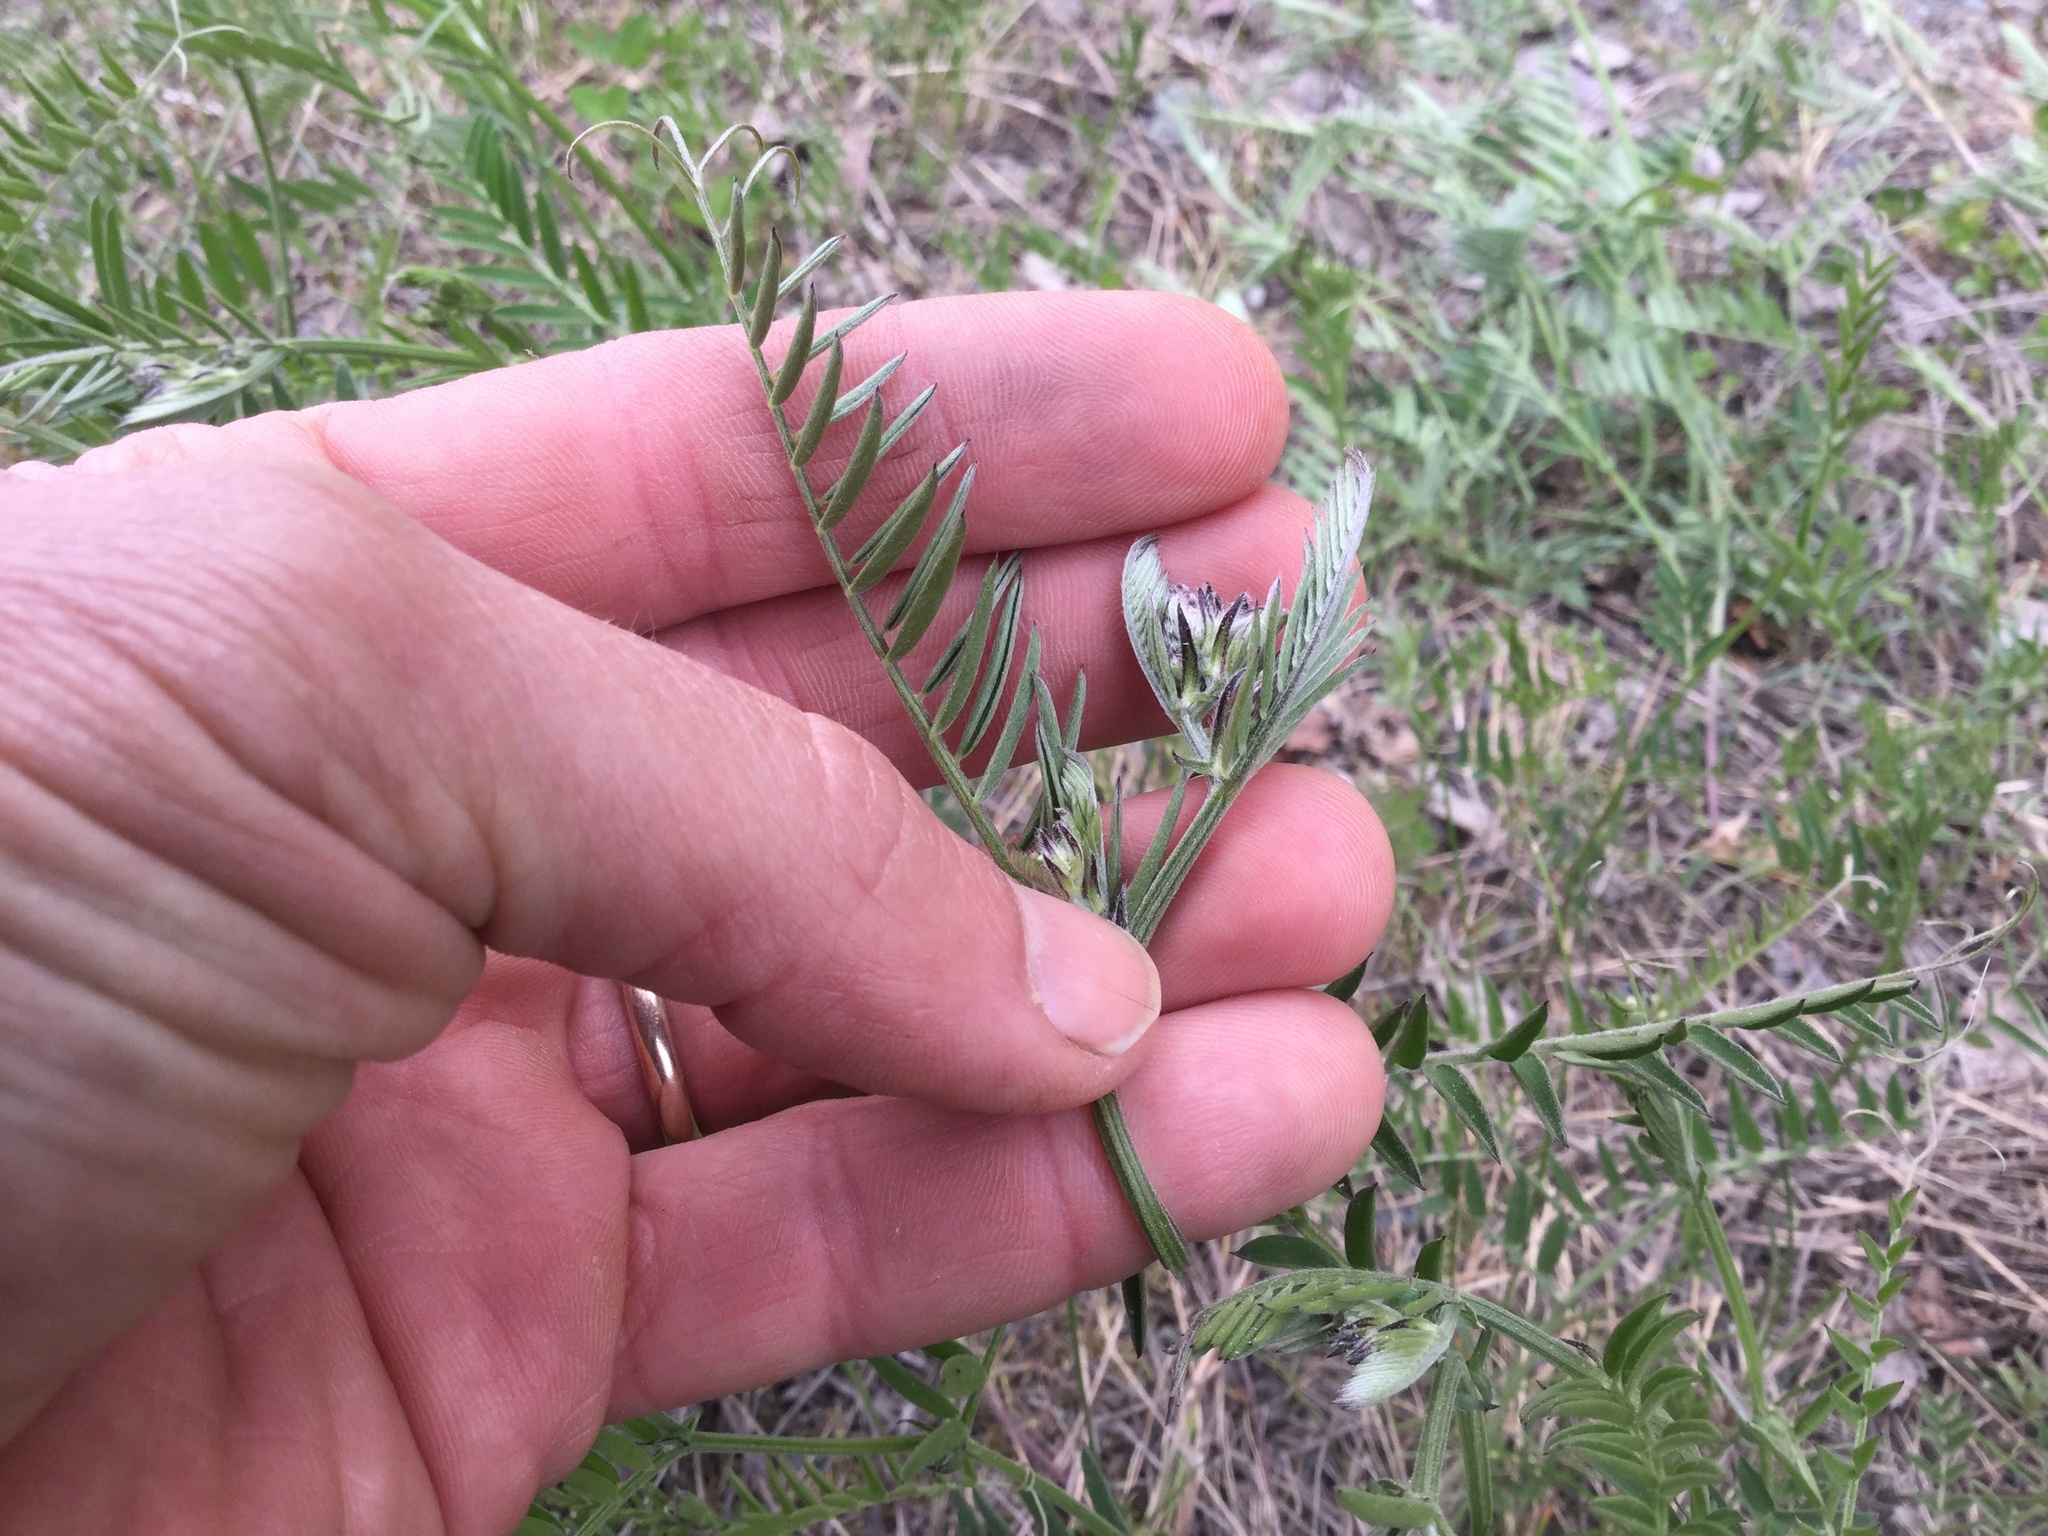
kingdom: Plantae
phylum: Tracheophyta
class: Magnoliopsida
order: Fabales
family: Fabaceae
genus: Vicia
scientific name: Vicia cracca
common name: Bird vetch
